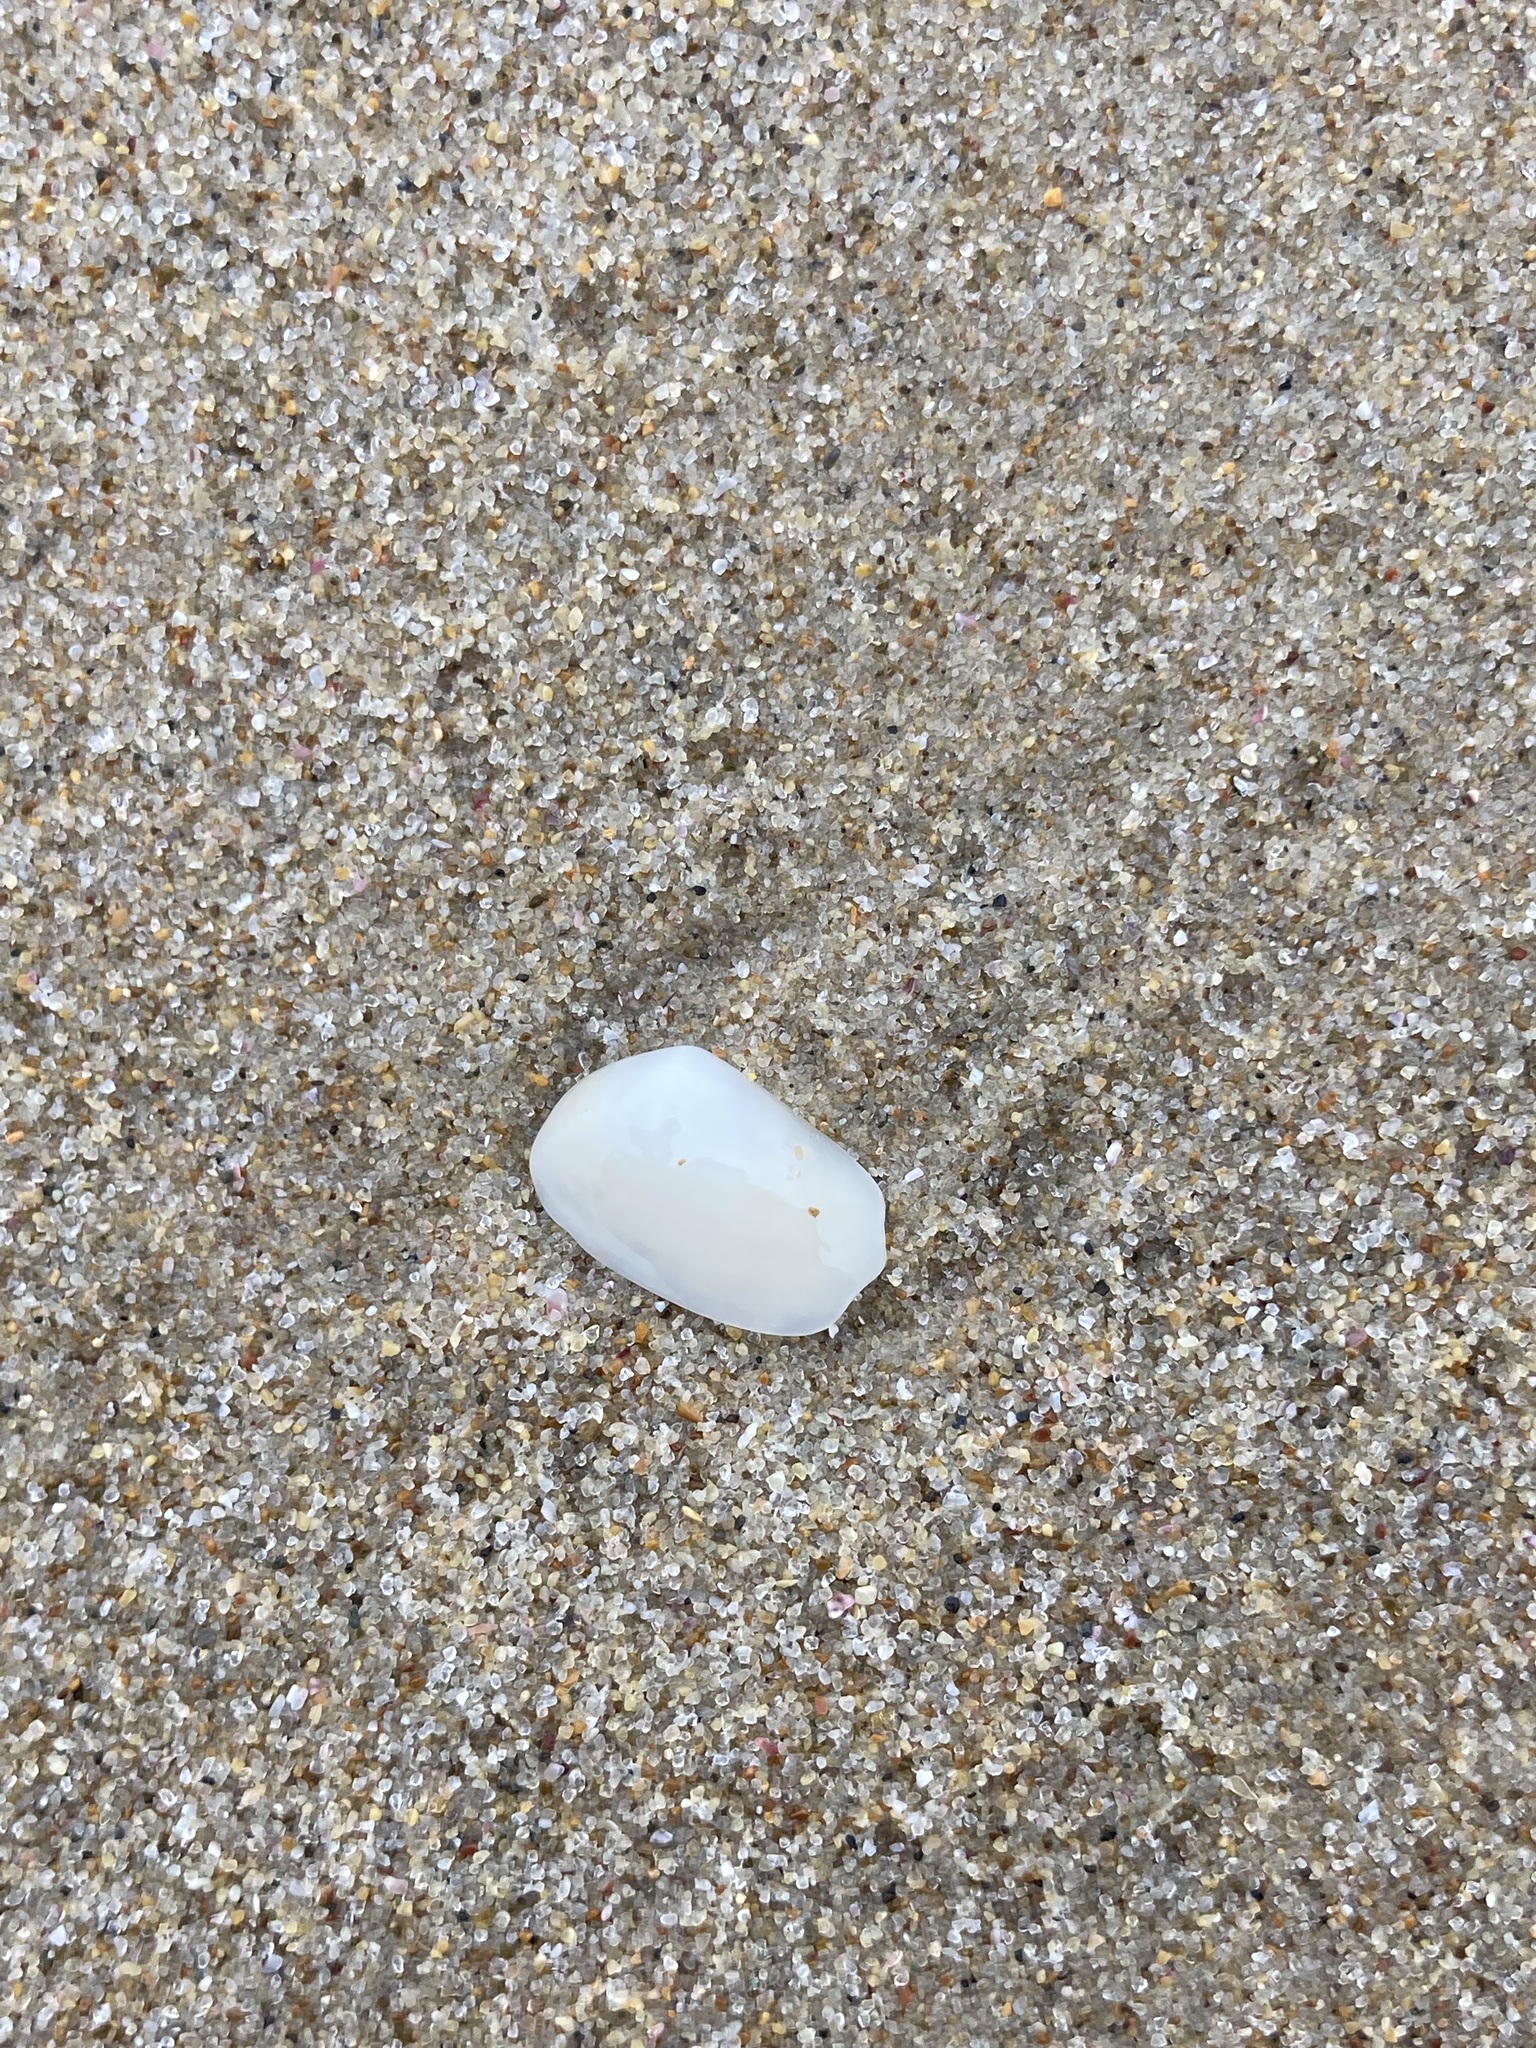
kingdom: Animalia
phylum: Mollusca
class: Bivalvia
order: Venerida
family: Mesodesmatidae
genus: Paphies
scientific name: Paphies angusta
